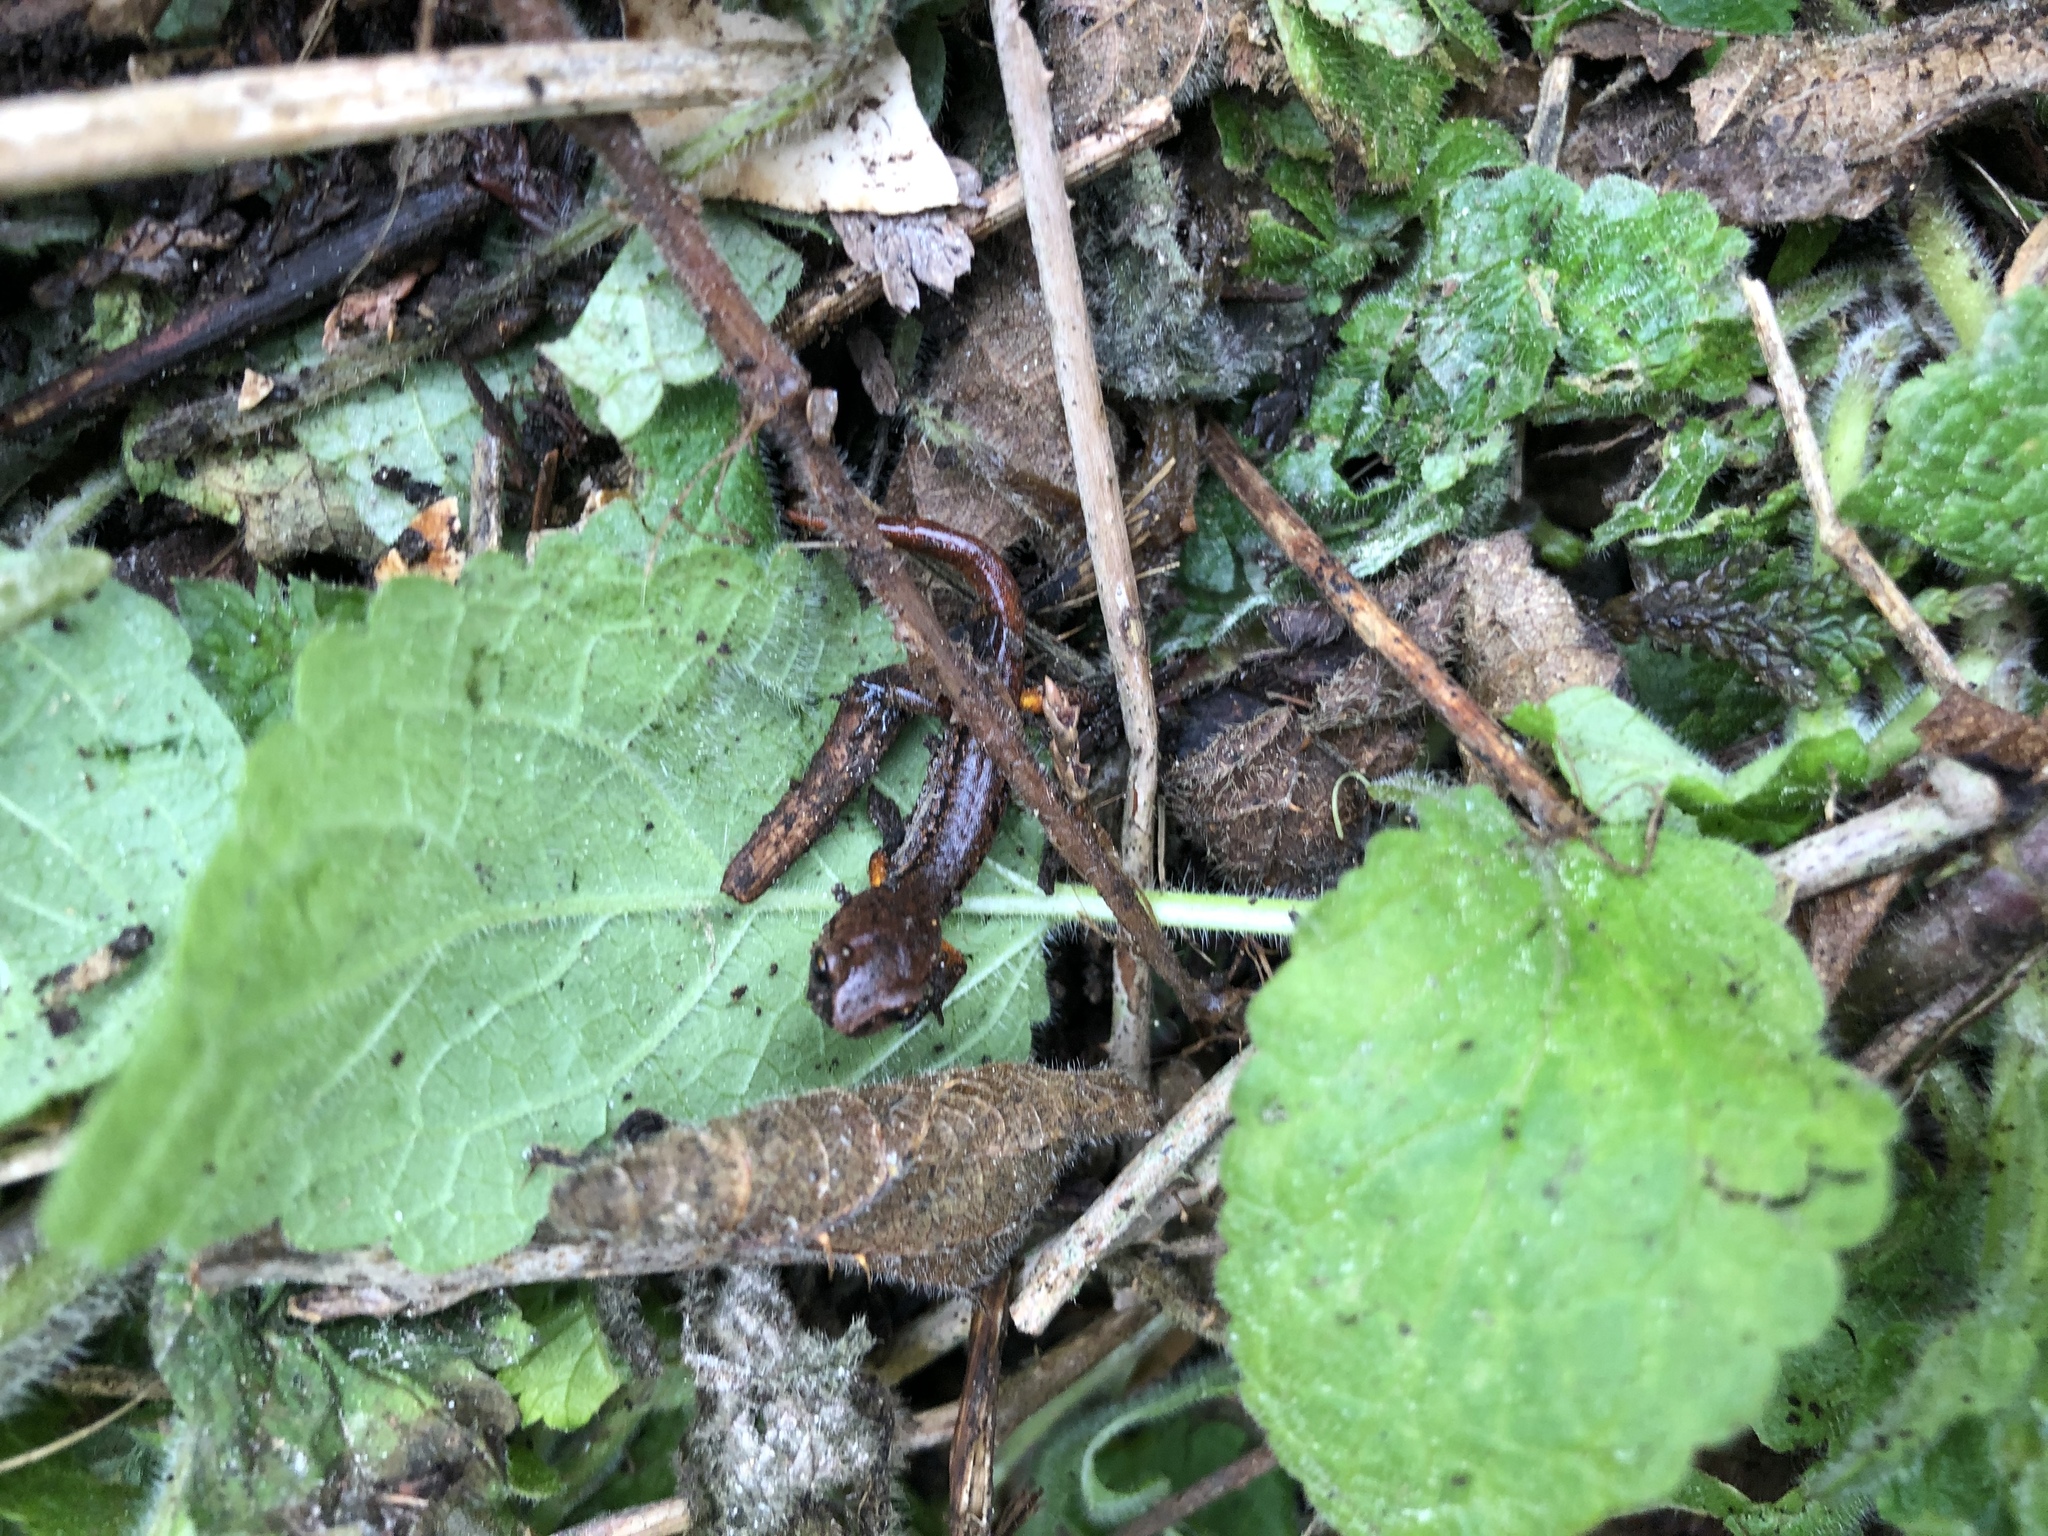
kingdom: Animalia
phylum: Chordata
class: Amphibia
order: Caudata
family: Plethodontidae
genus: Ensatina
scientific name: Ensatina eschscholtzii
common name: Ensatina
